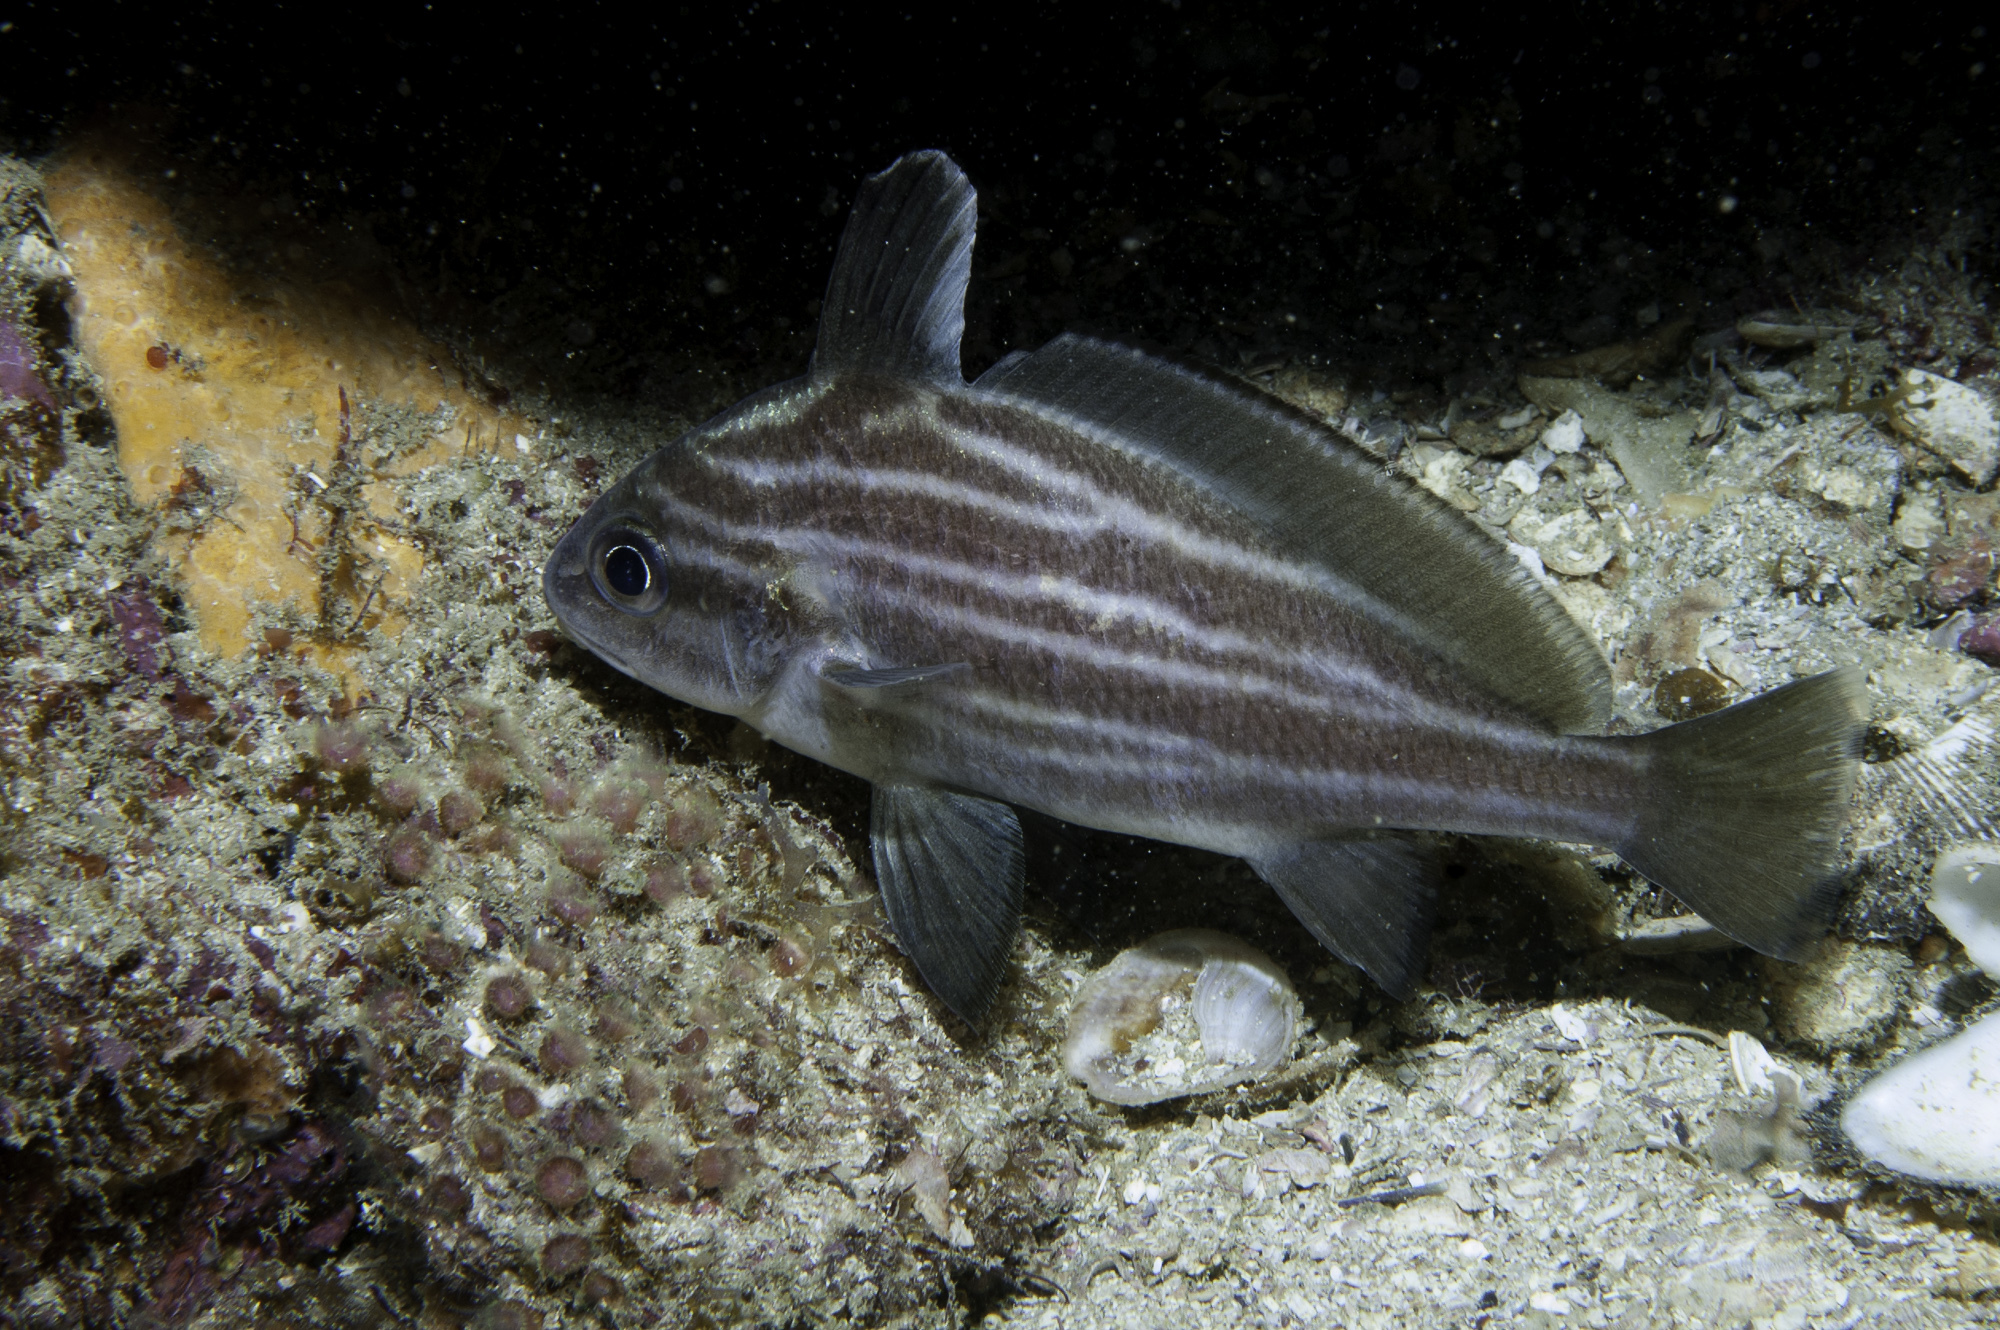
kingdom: Animalia
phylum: Chordata
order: Perciformes
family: Sciaenidae
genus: Pareques
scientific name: Pareques acuminatus
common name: High-hat
